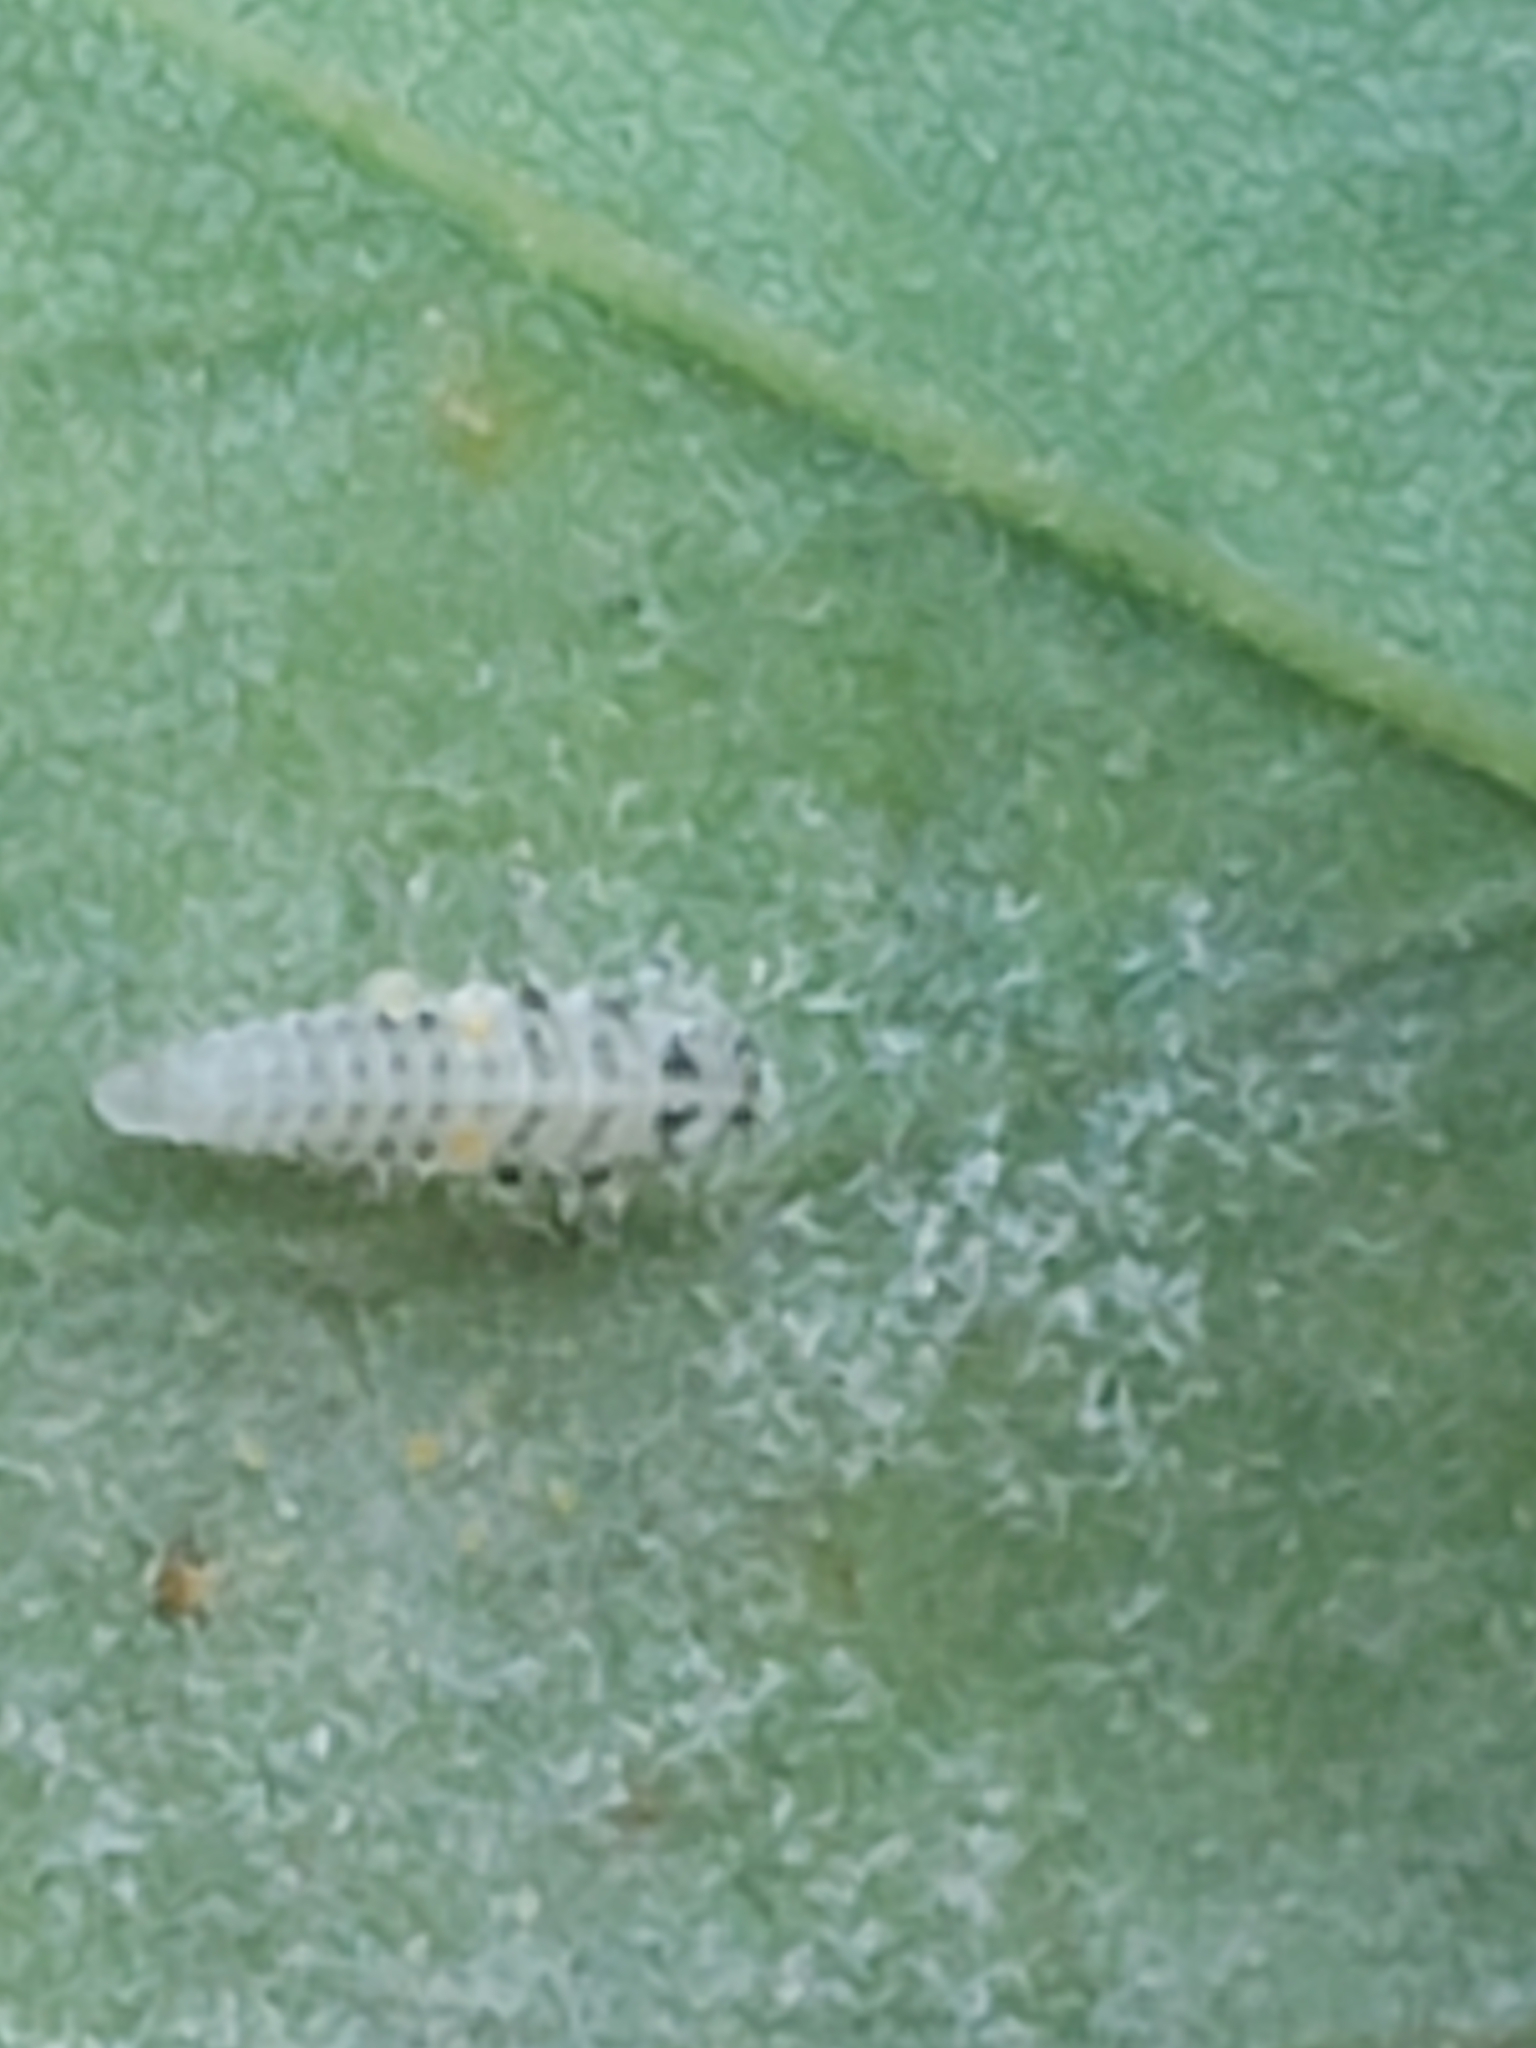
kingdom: Animalia
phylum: Arthropoda
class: Insecta
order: Coleoptera
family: Coccinellidae
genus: Psyllobora
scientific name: Psyllobora vigintimaculata
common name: Ladybird beetle
